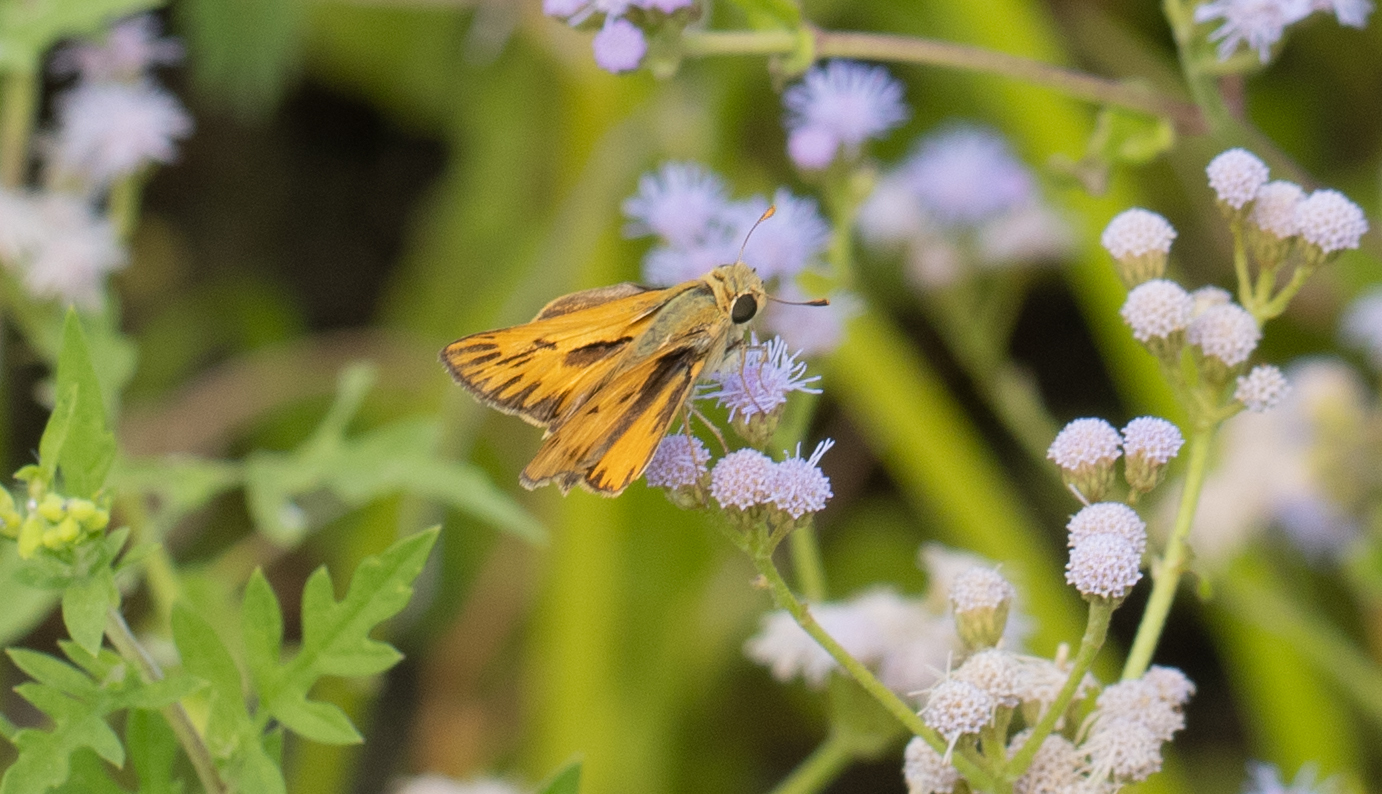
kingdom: Animalia
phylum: Arthropoda
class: Insecta
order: Lepidoptera
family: Hesperiidae
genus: Hylephila
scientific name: Hylephila phyleus
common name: Fiery skipper
